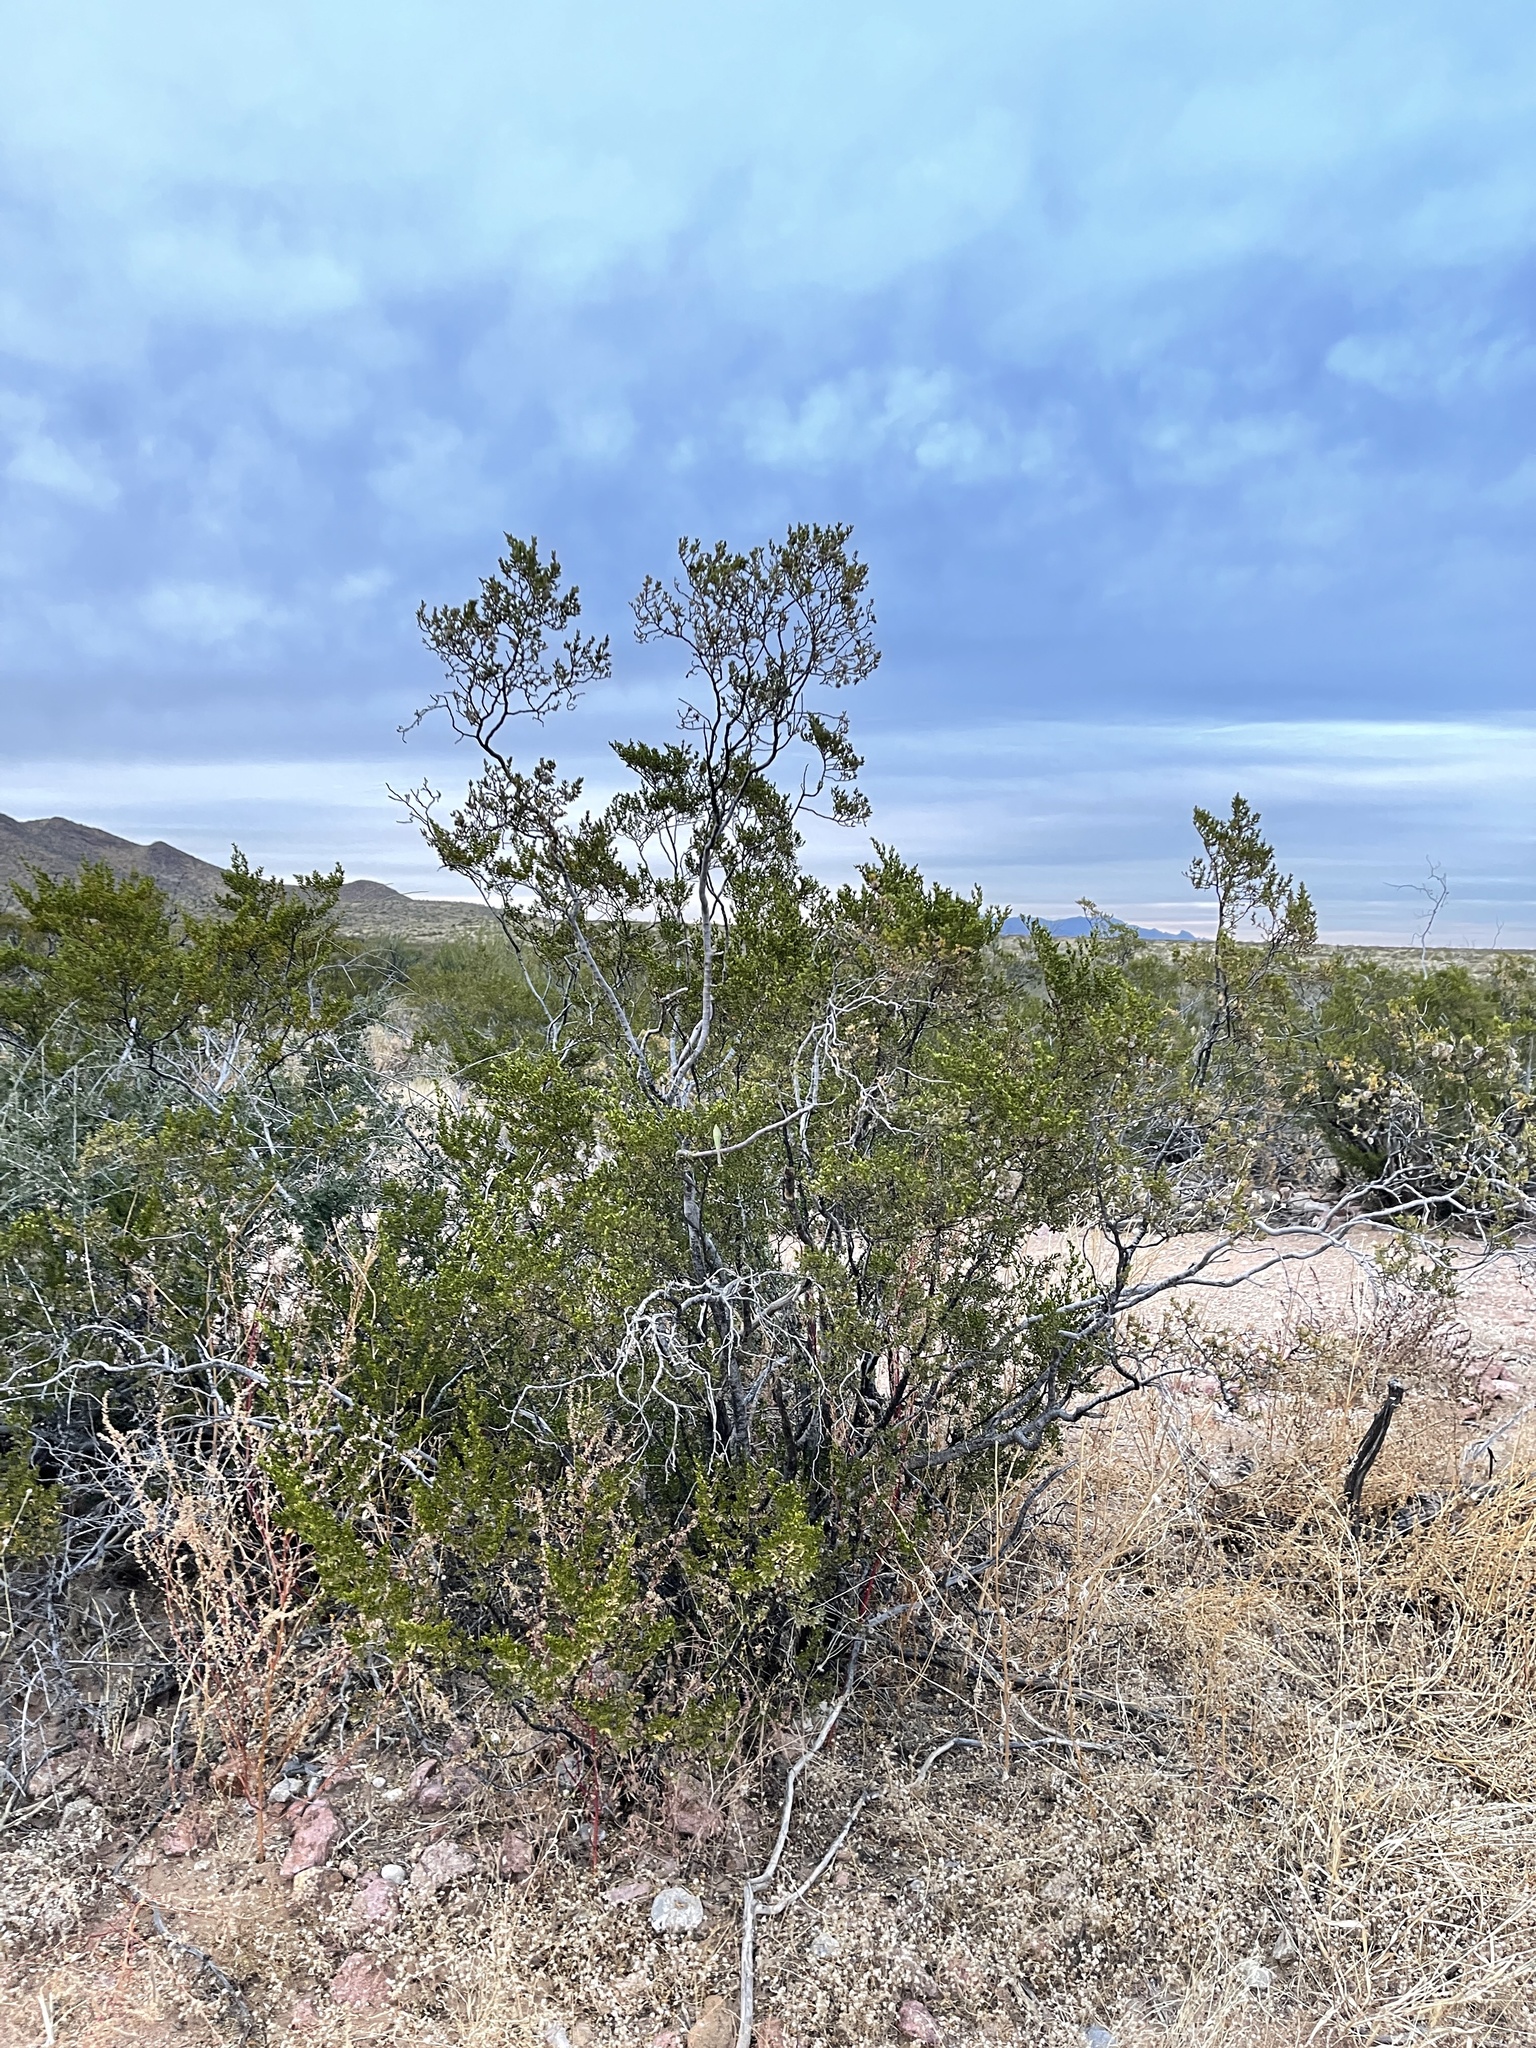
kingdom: Plantae
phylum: Tracheophyta
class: Magnoliopsida
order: Zygophyllales
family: Zygophyllaceae
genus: Larrea
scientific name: Larrea tridentata
